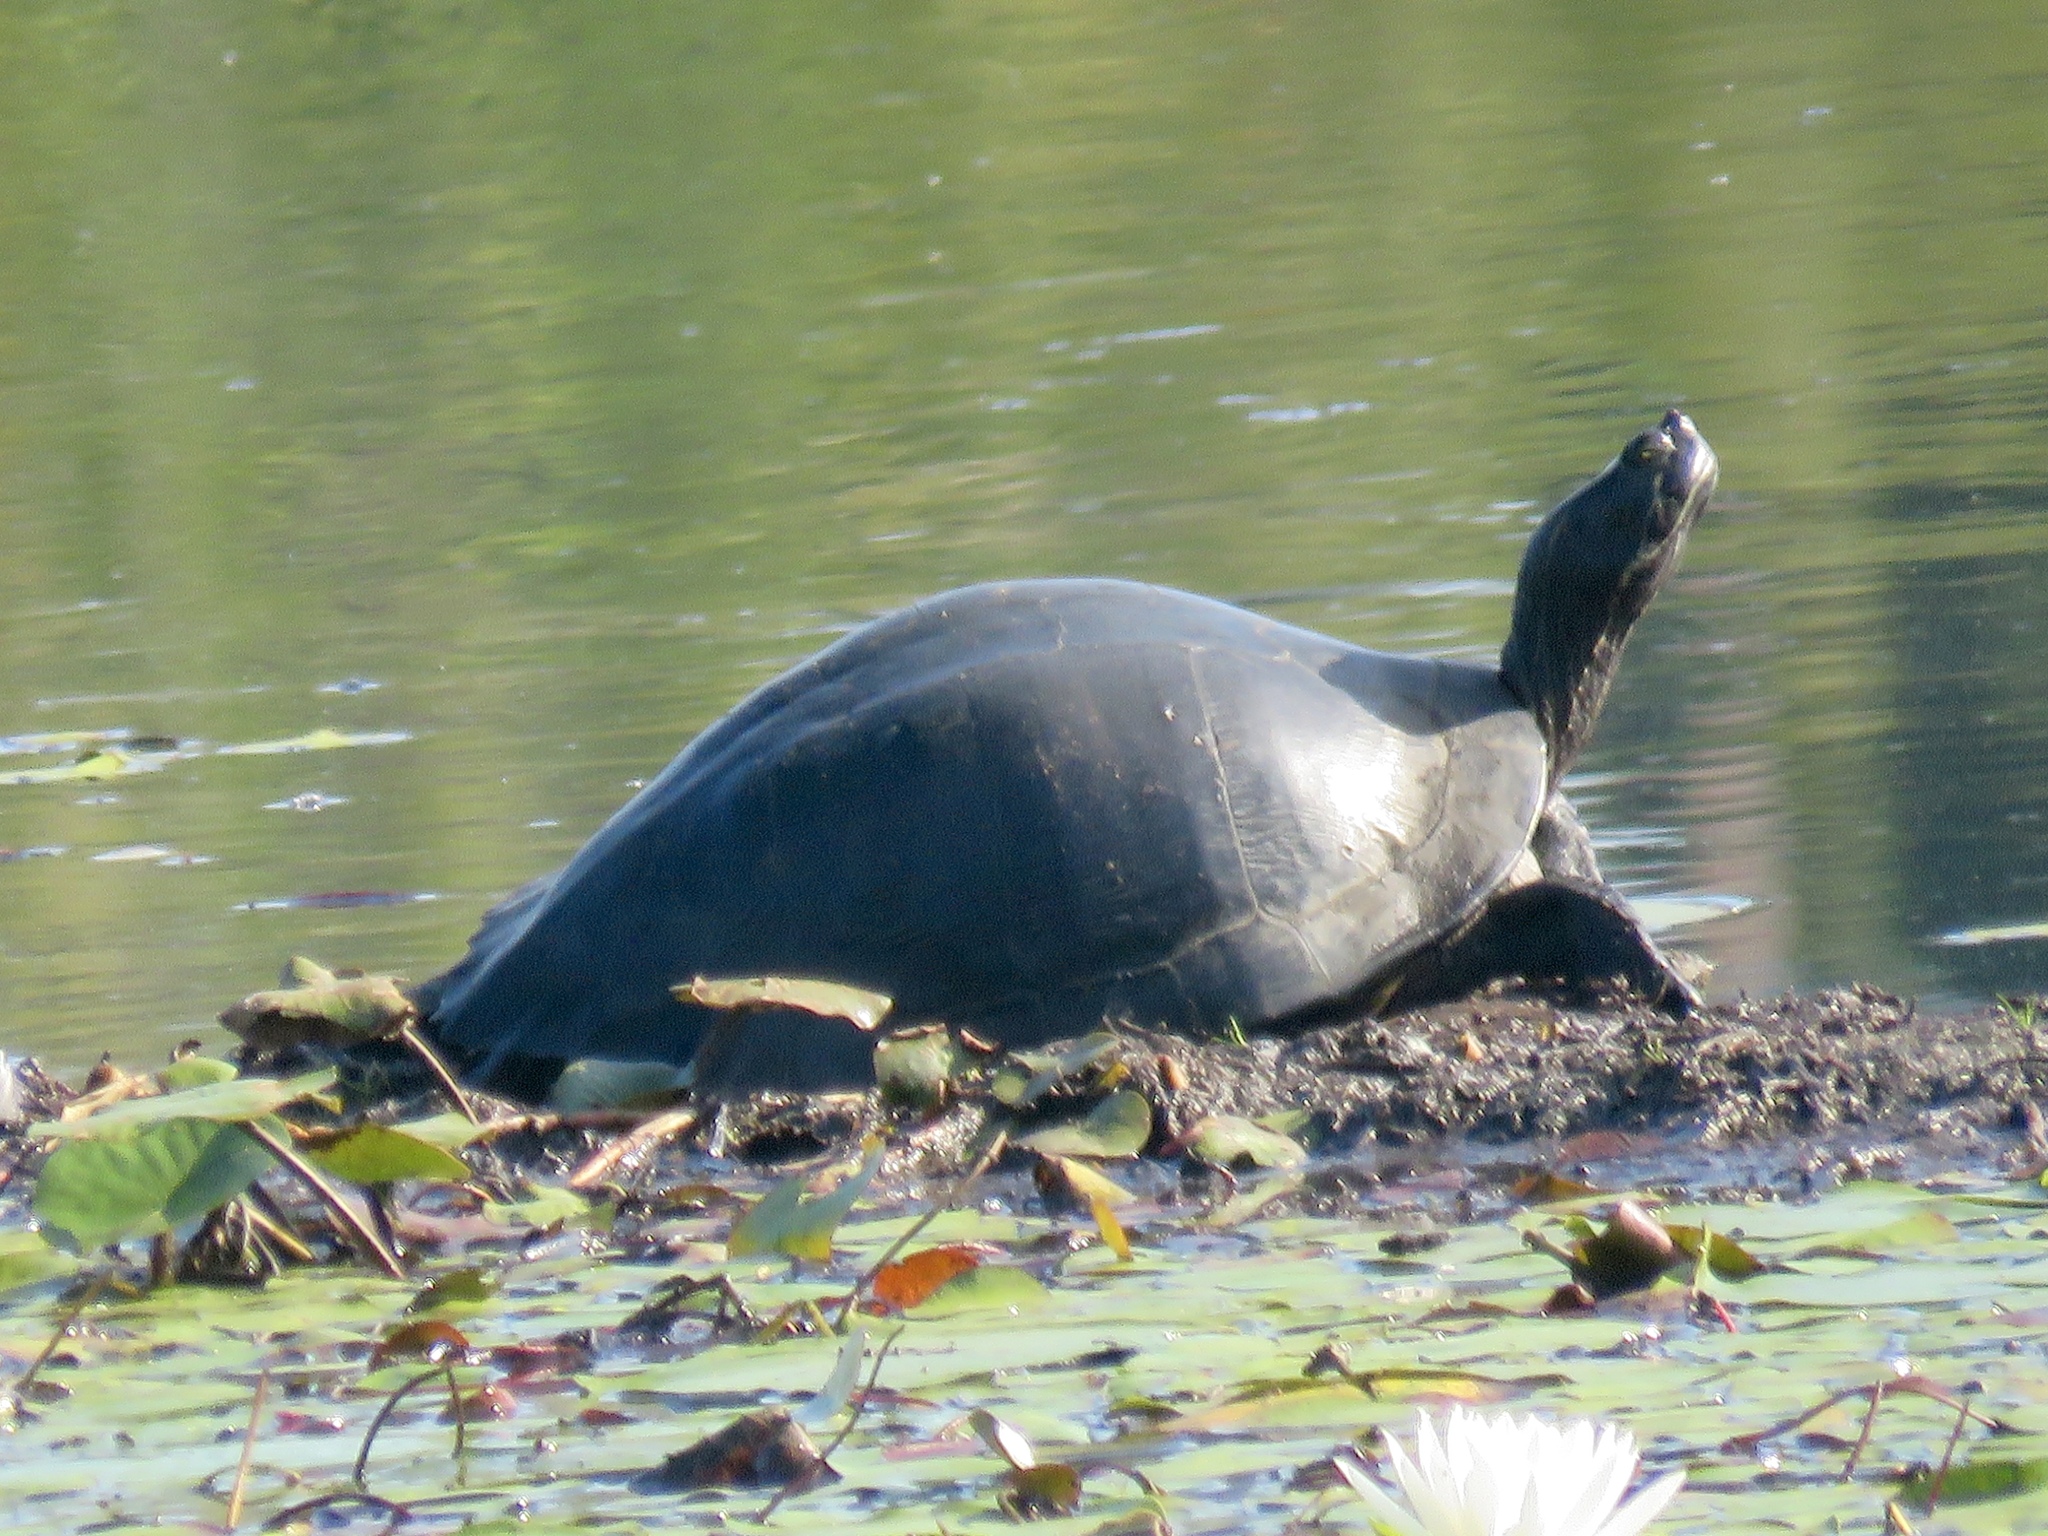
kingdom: Animalia
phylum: Chordata
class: Testudines
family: Emydidae
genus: Pseudemys
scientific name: Pseudemys concinna
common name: Eastern river cooter
